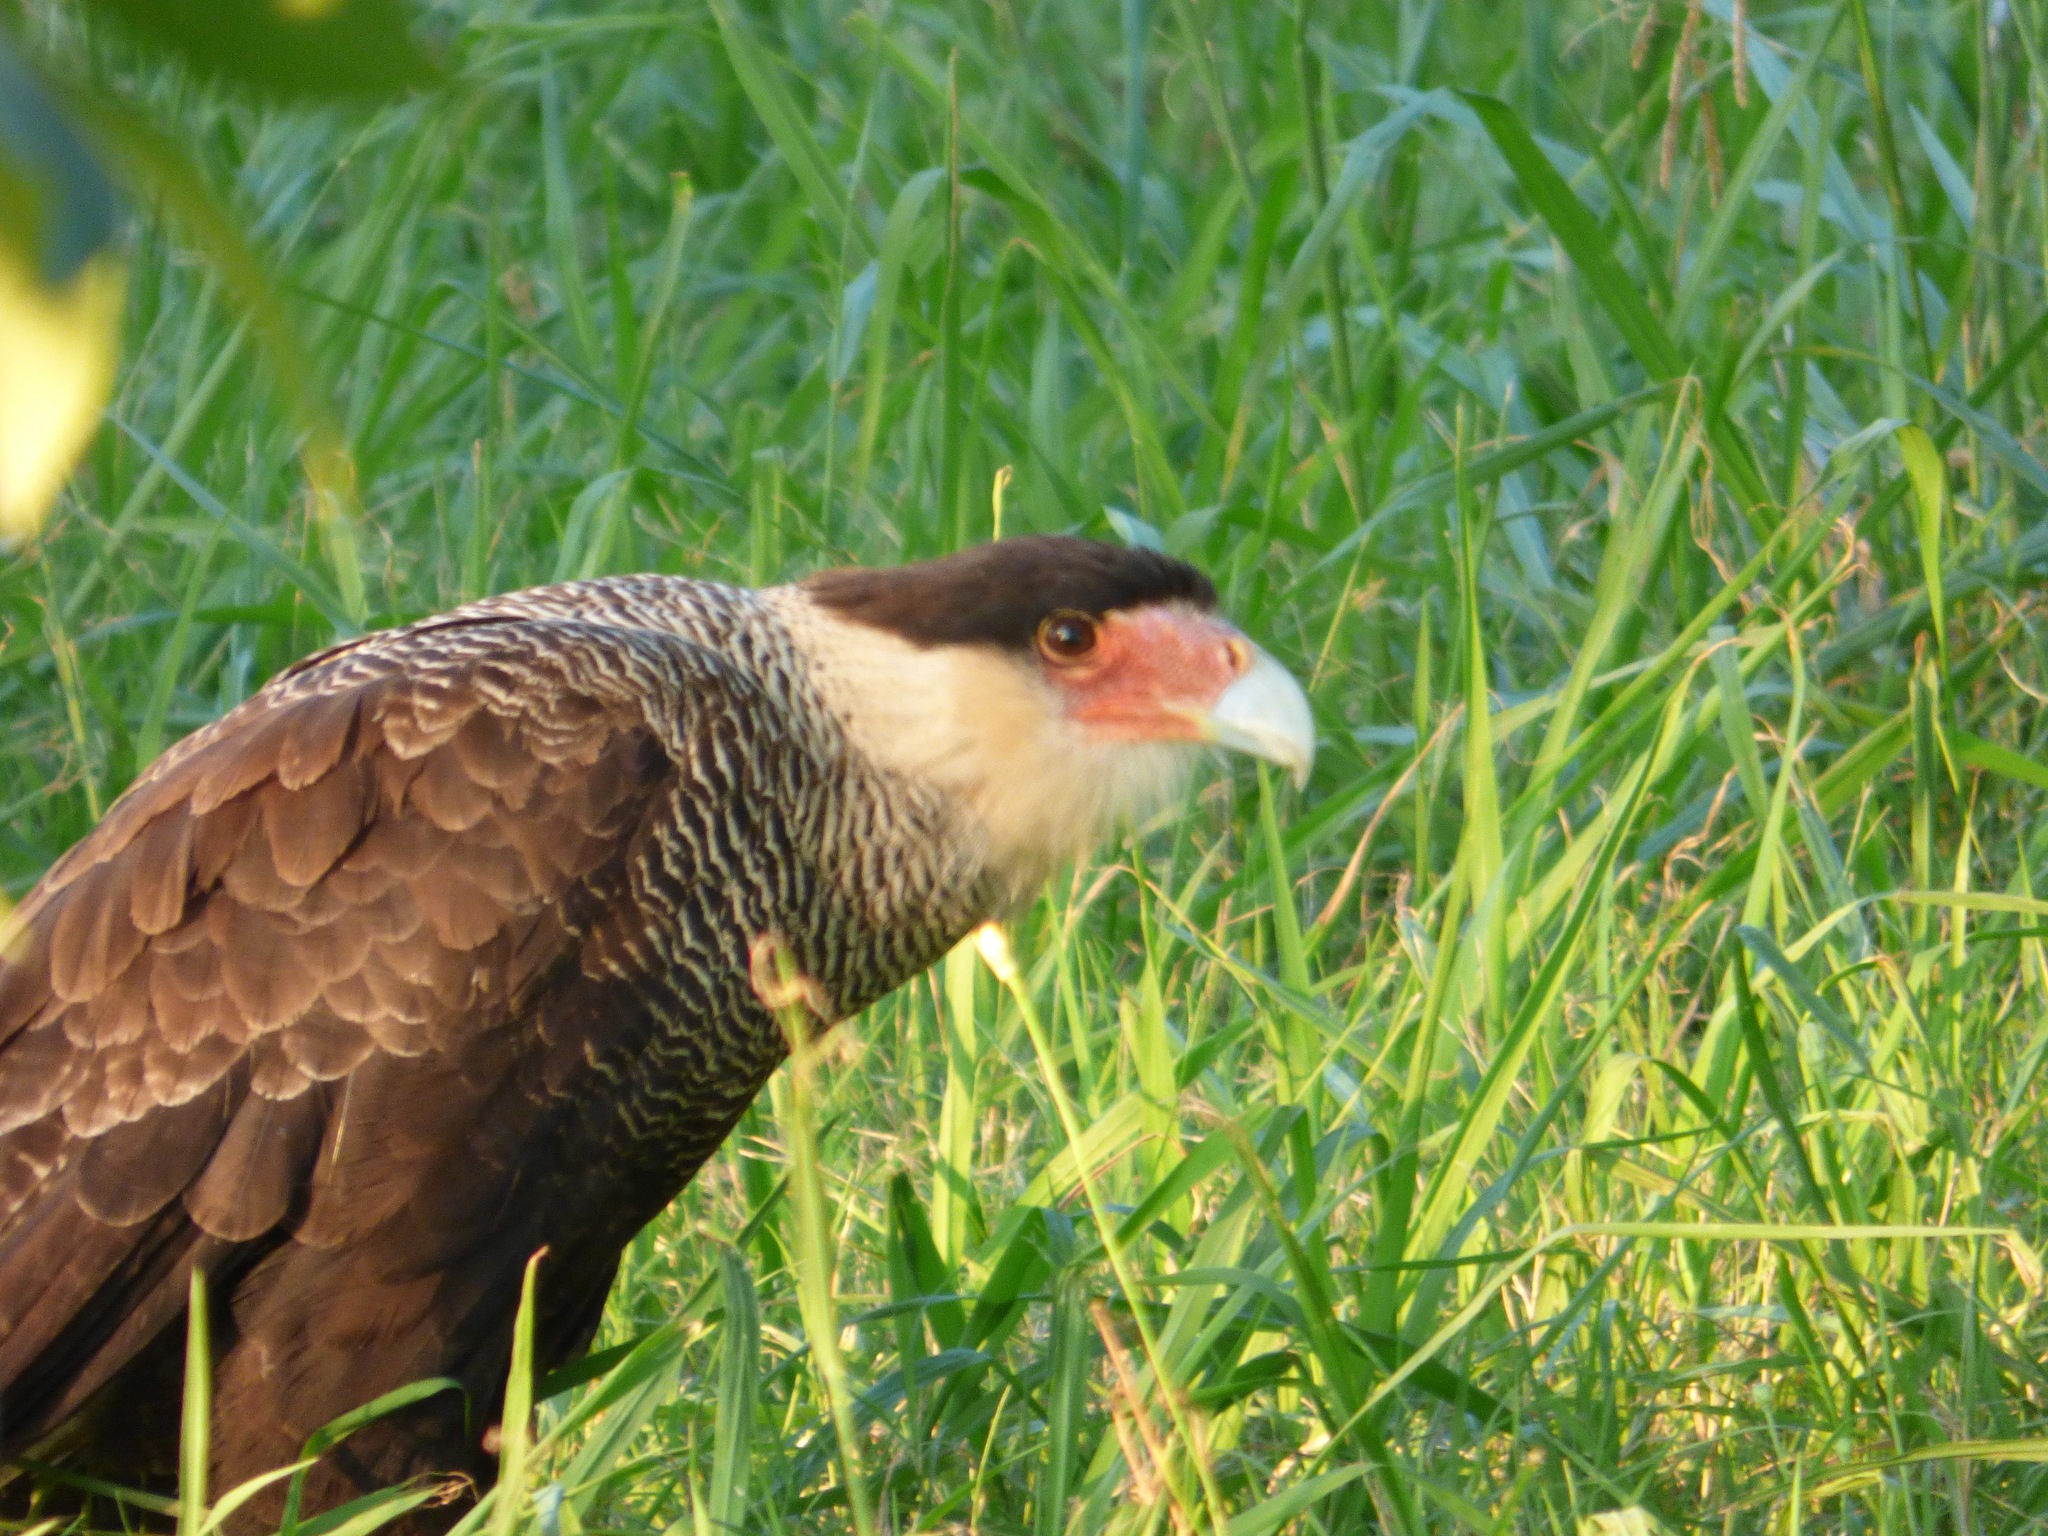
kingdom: Animalia
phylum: Chordata
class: Aves
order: Falconiformes
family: Falconidae
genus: Caracara
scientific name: Caracara plancus
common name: Southern caracara
